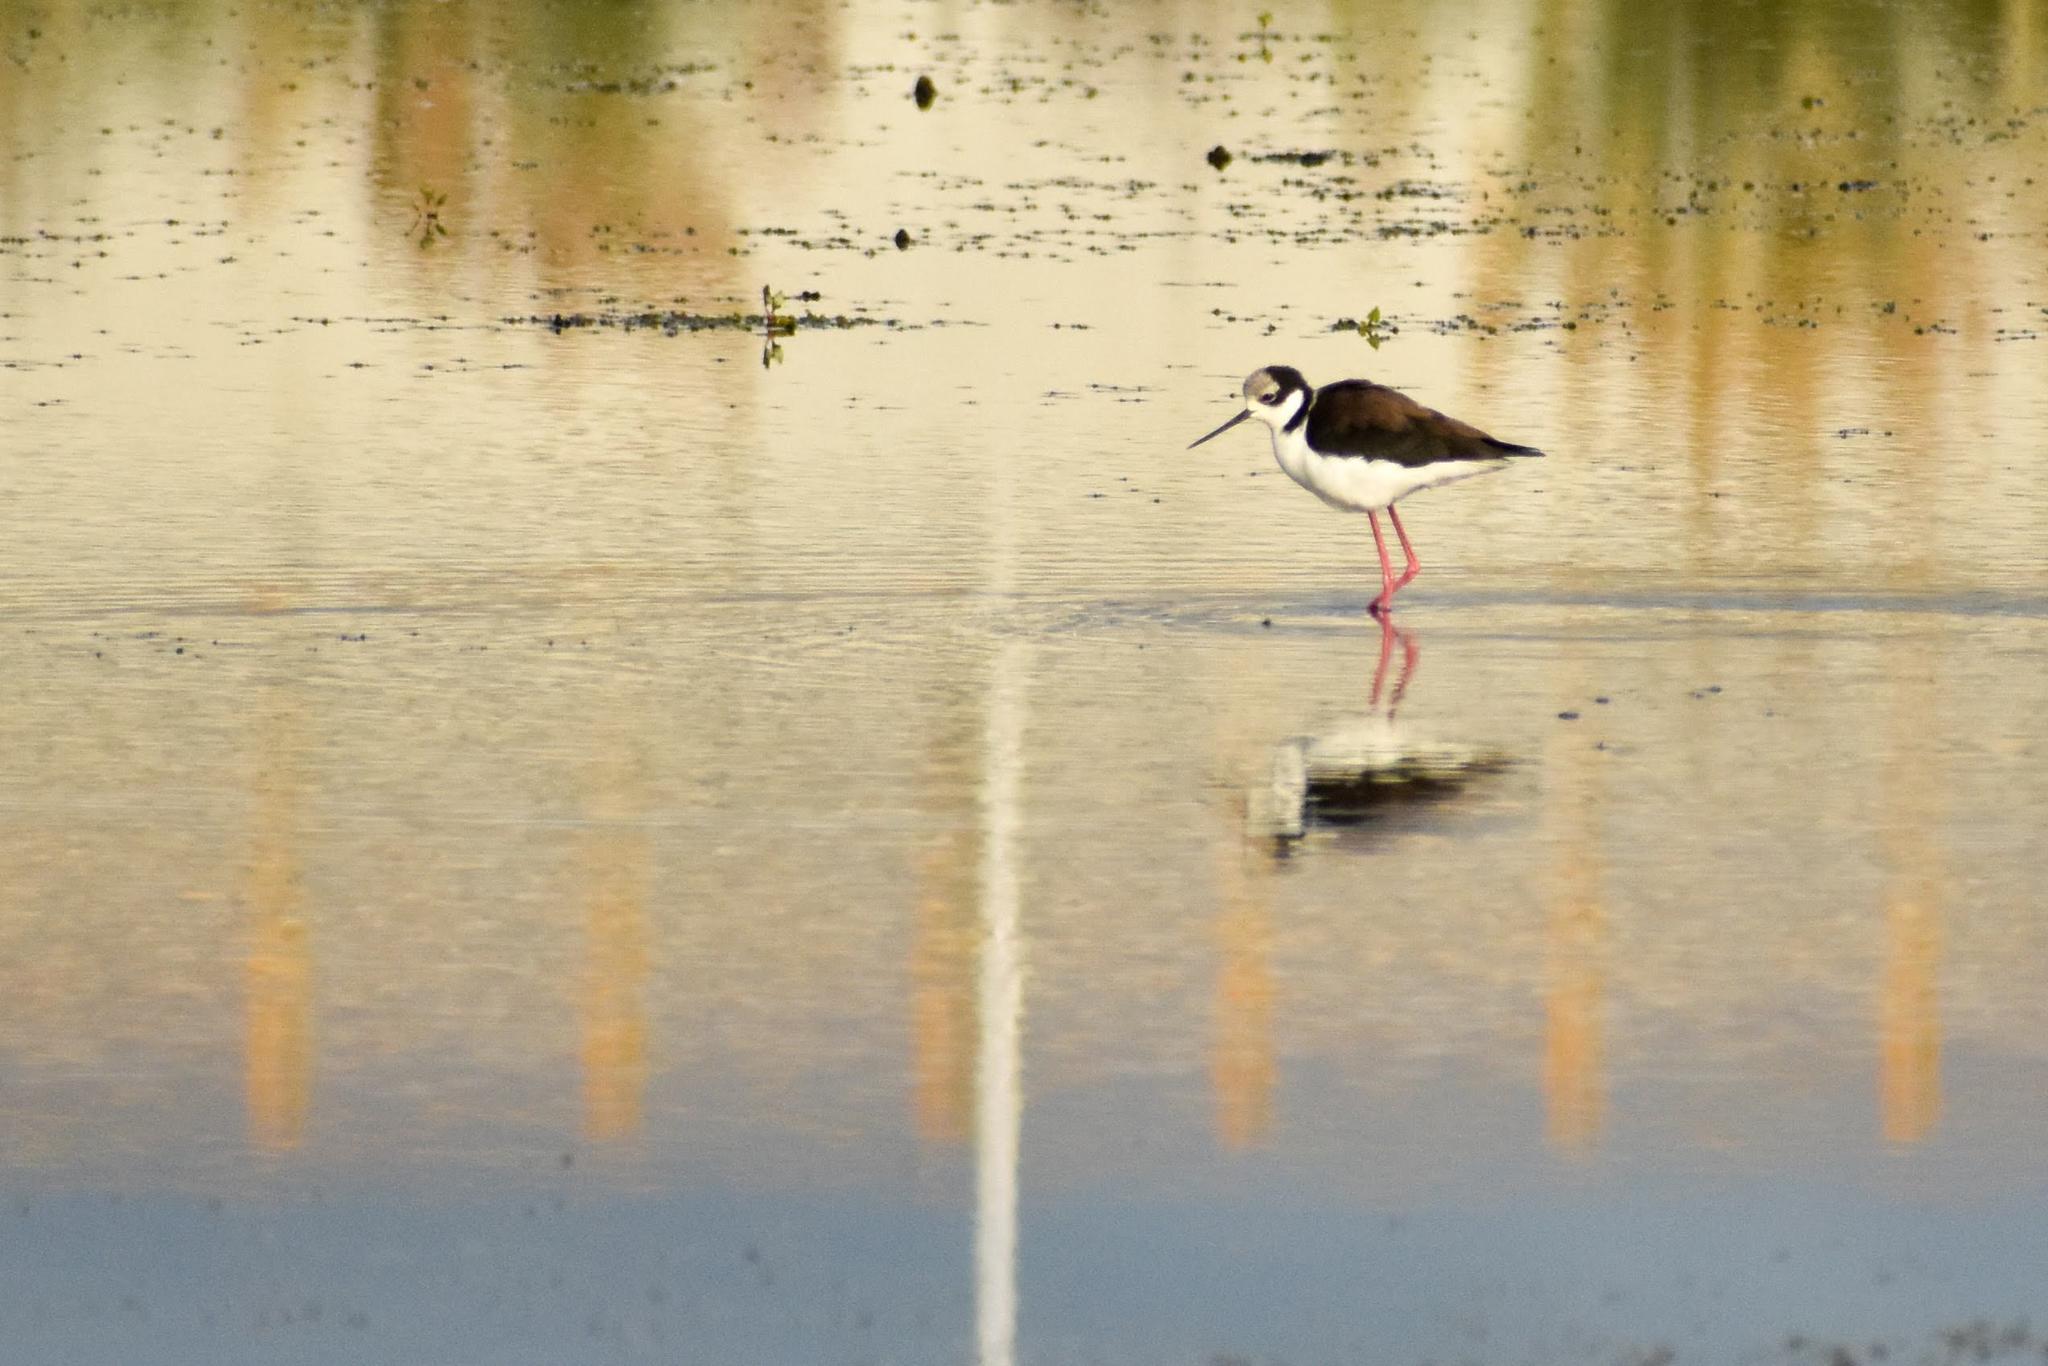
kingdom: Animalia
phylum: Chordata
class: Aves
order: Charadriiformes
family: Recurvirostridae
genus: Himantopus
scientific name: Himantopus mexicanus
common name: Black-necked stilt
